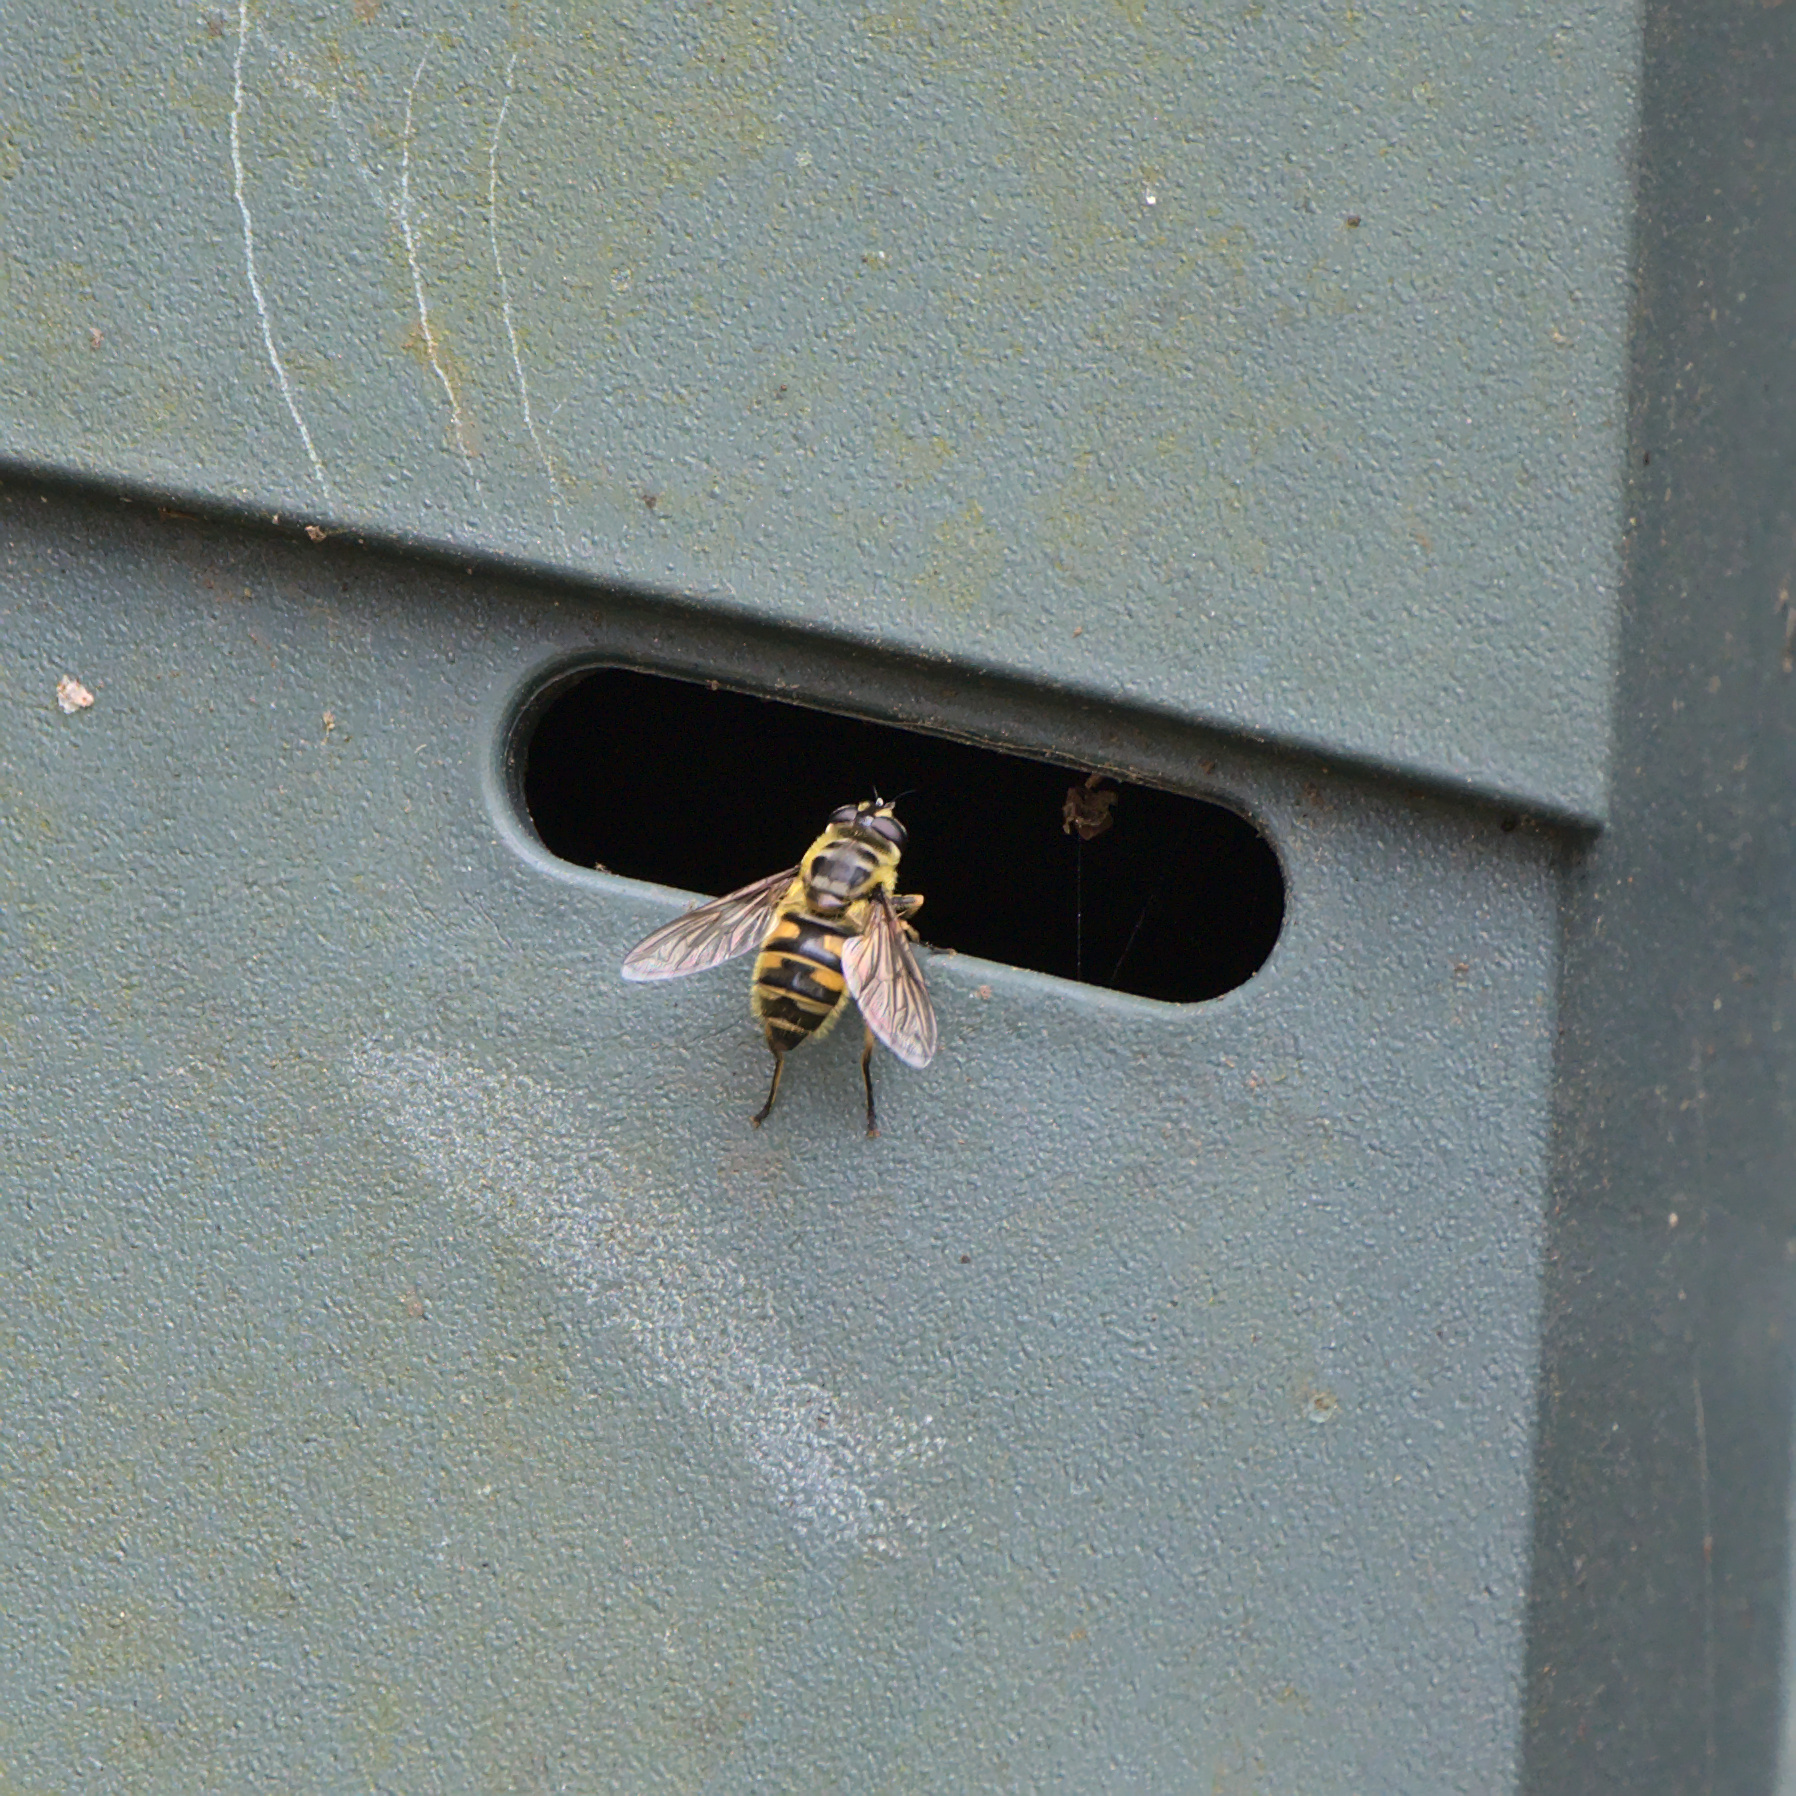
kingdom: Animalia
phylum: Arthropoda
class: Insecta
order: Diptera
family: Syrphidae
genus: Myathropa
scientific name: Myathropa florea
